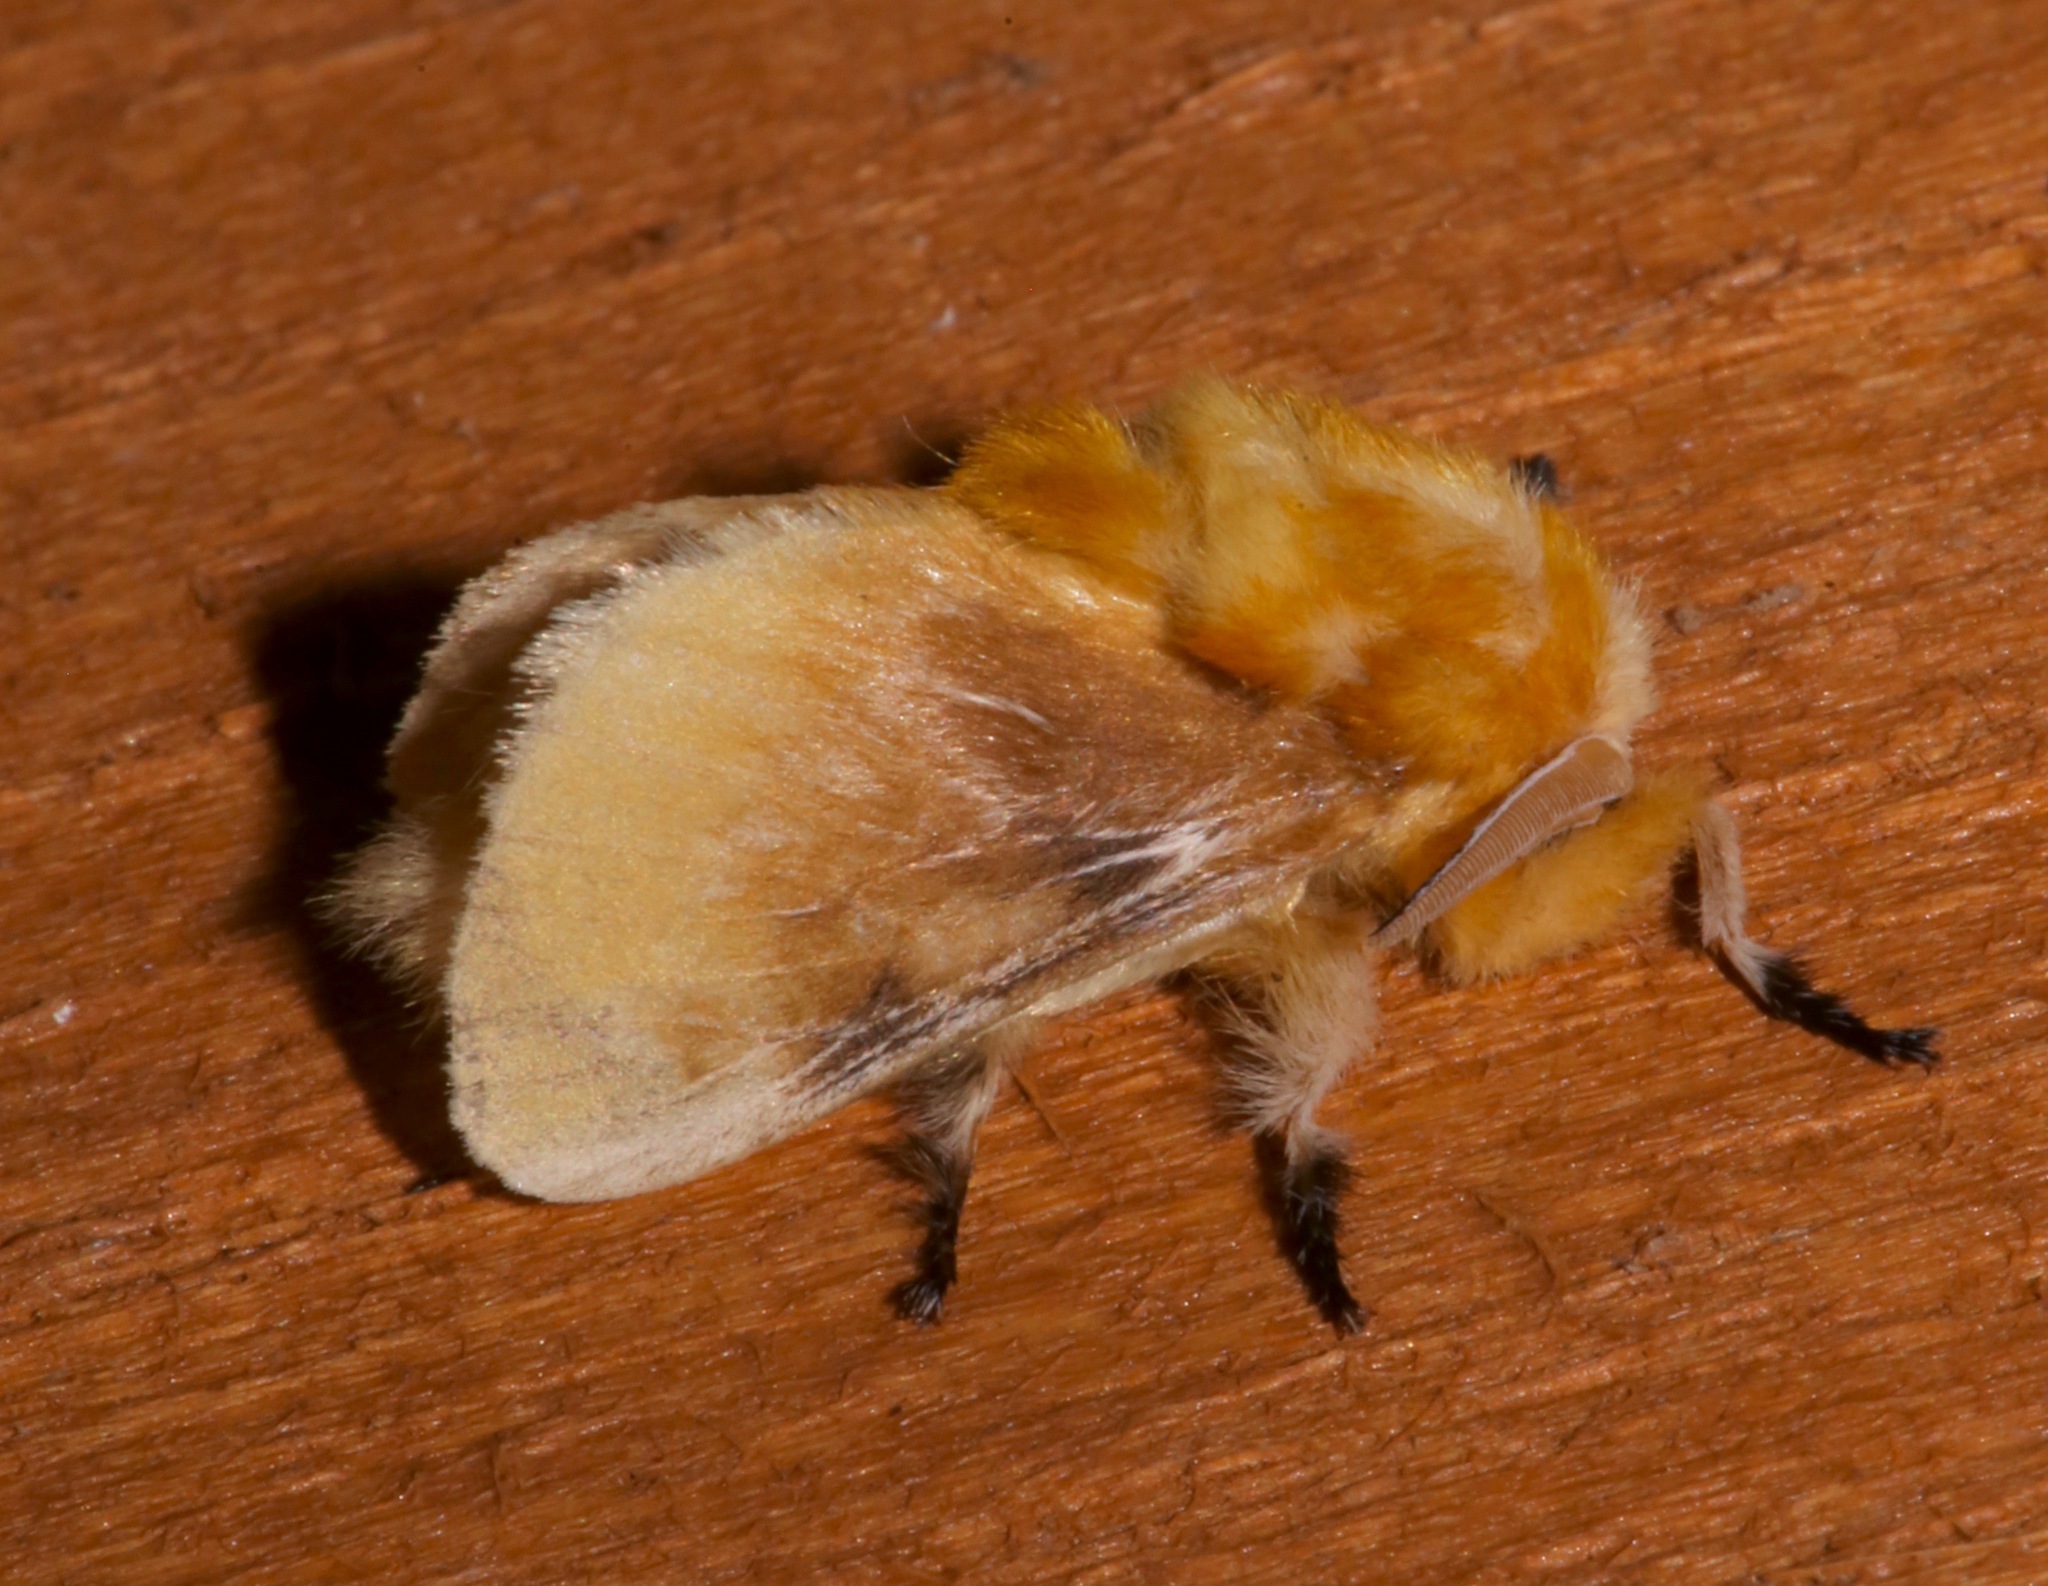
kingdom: Animalia
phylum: Arthropoda
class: Insecta
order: Lepidoptera
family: Megalopygidae
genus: Megalopyge
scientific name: Megalopyge opercularis
